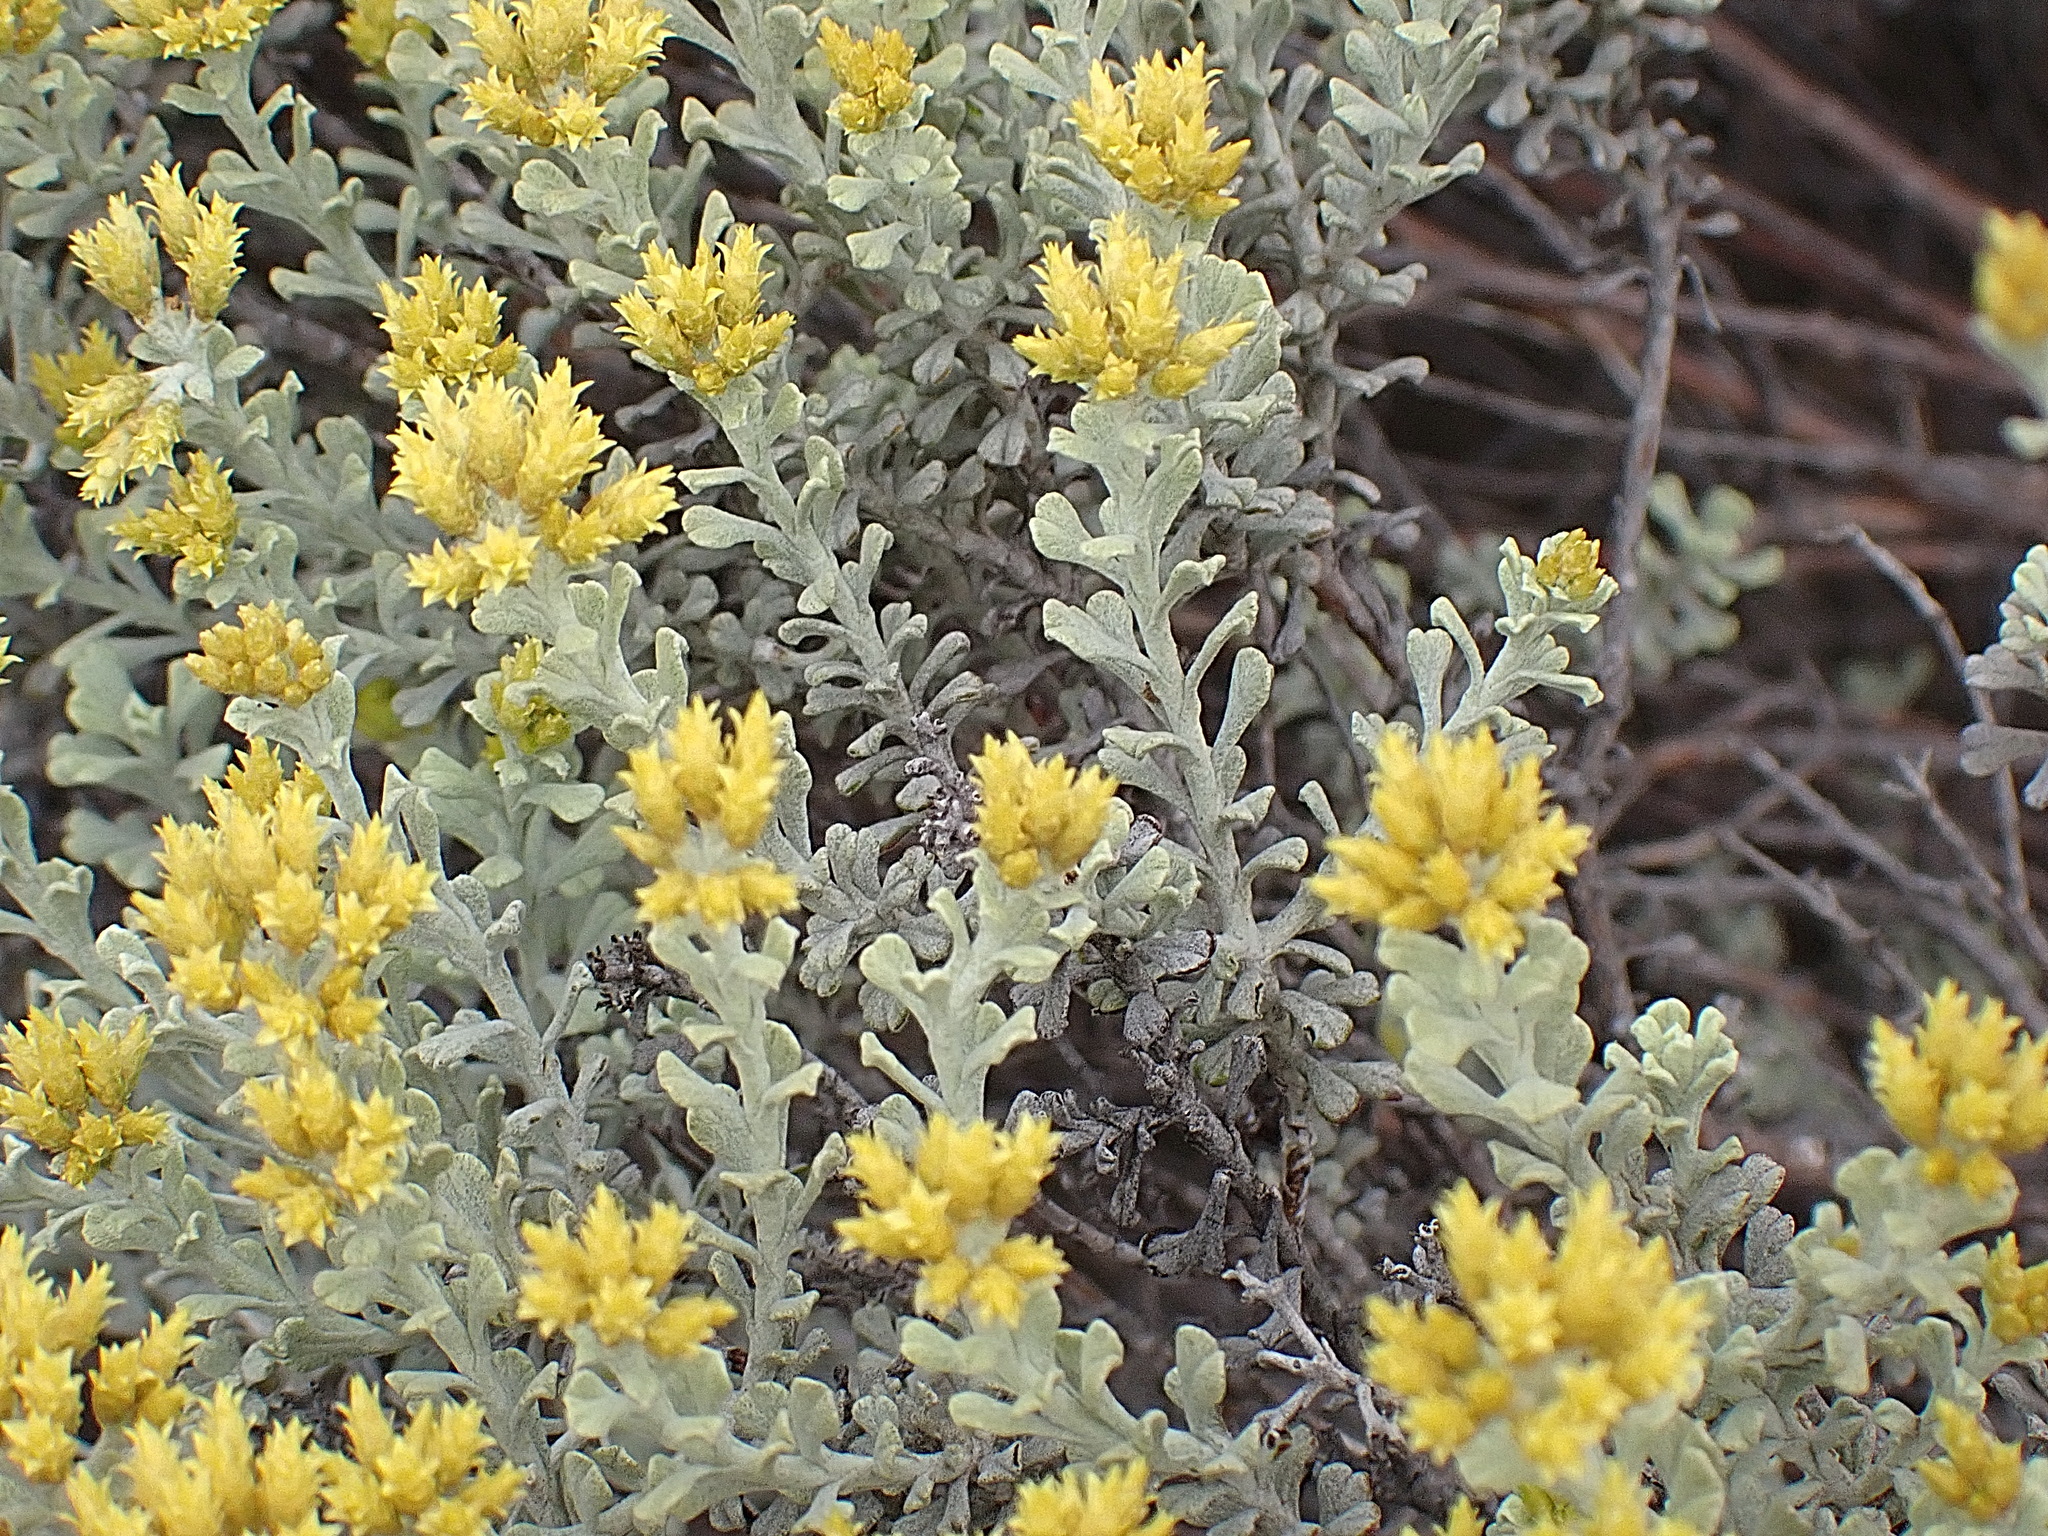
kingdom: Plantae
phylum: Tracheophyta
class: Magnoliopsida
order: Asterales
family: Asteraceae
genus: Helichrysum
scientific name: Helichrysum excisum
